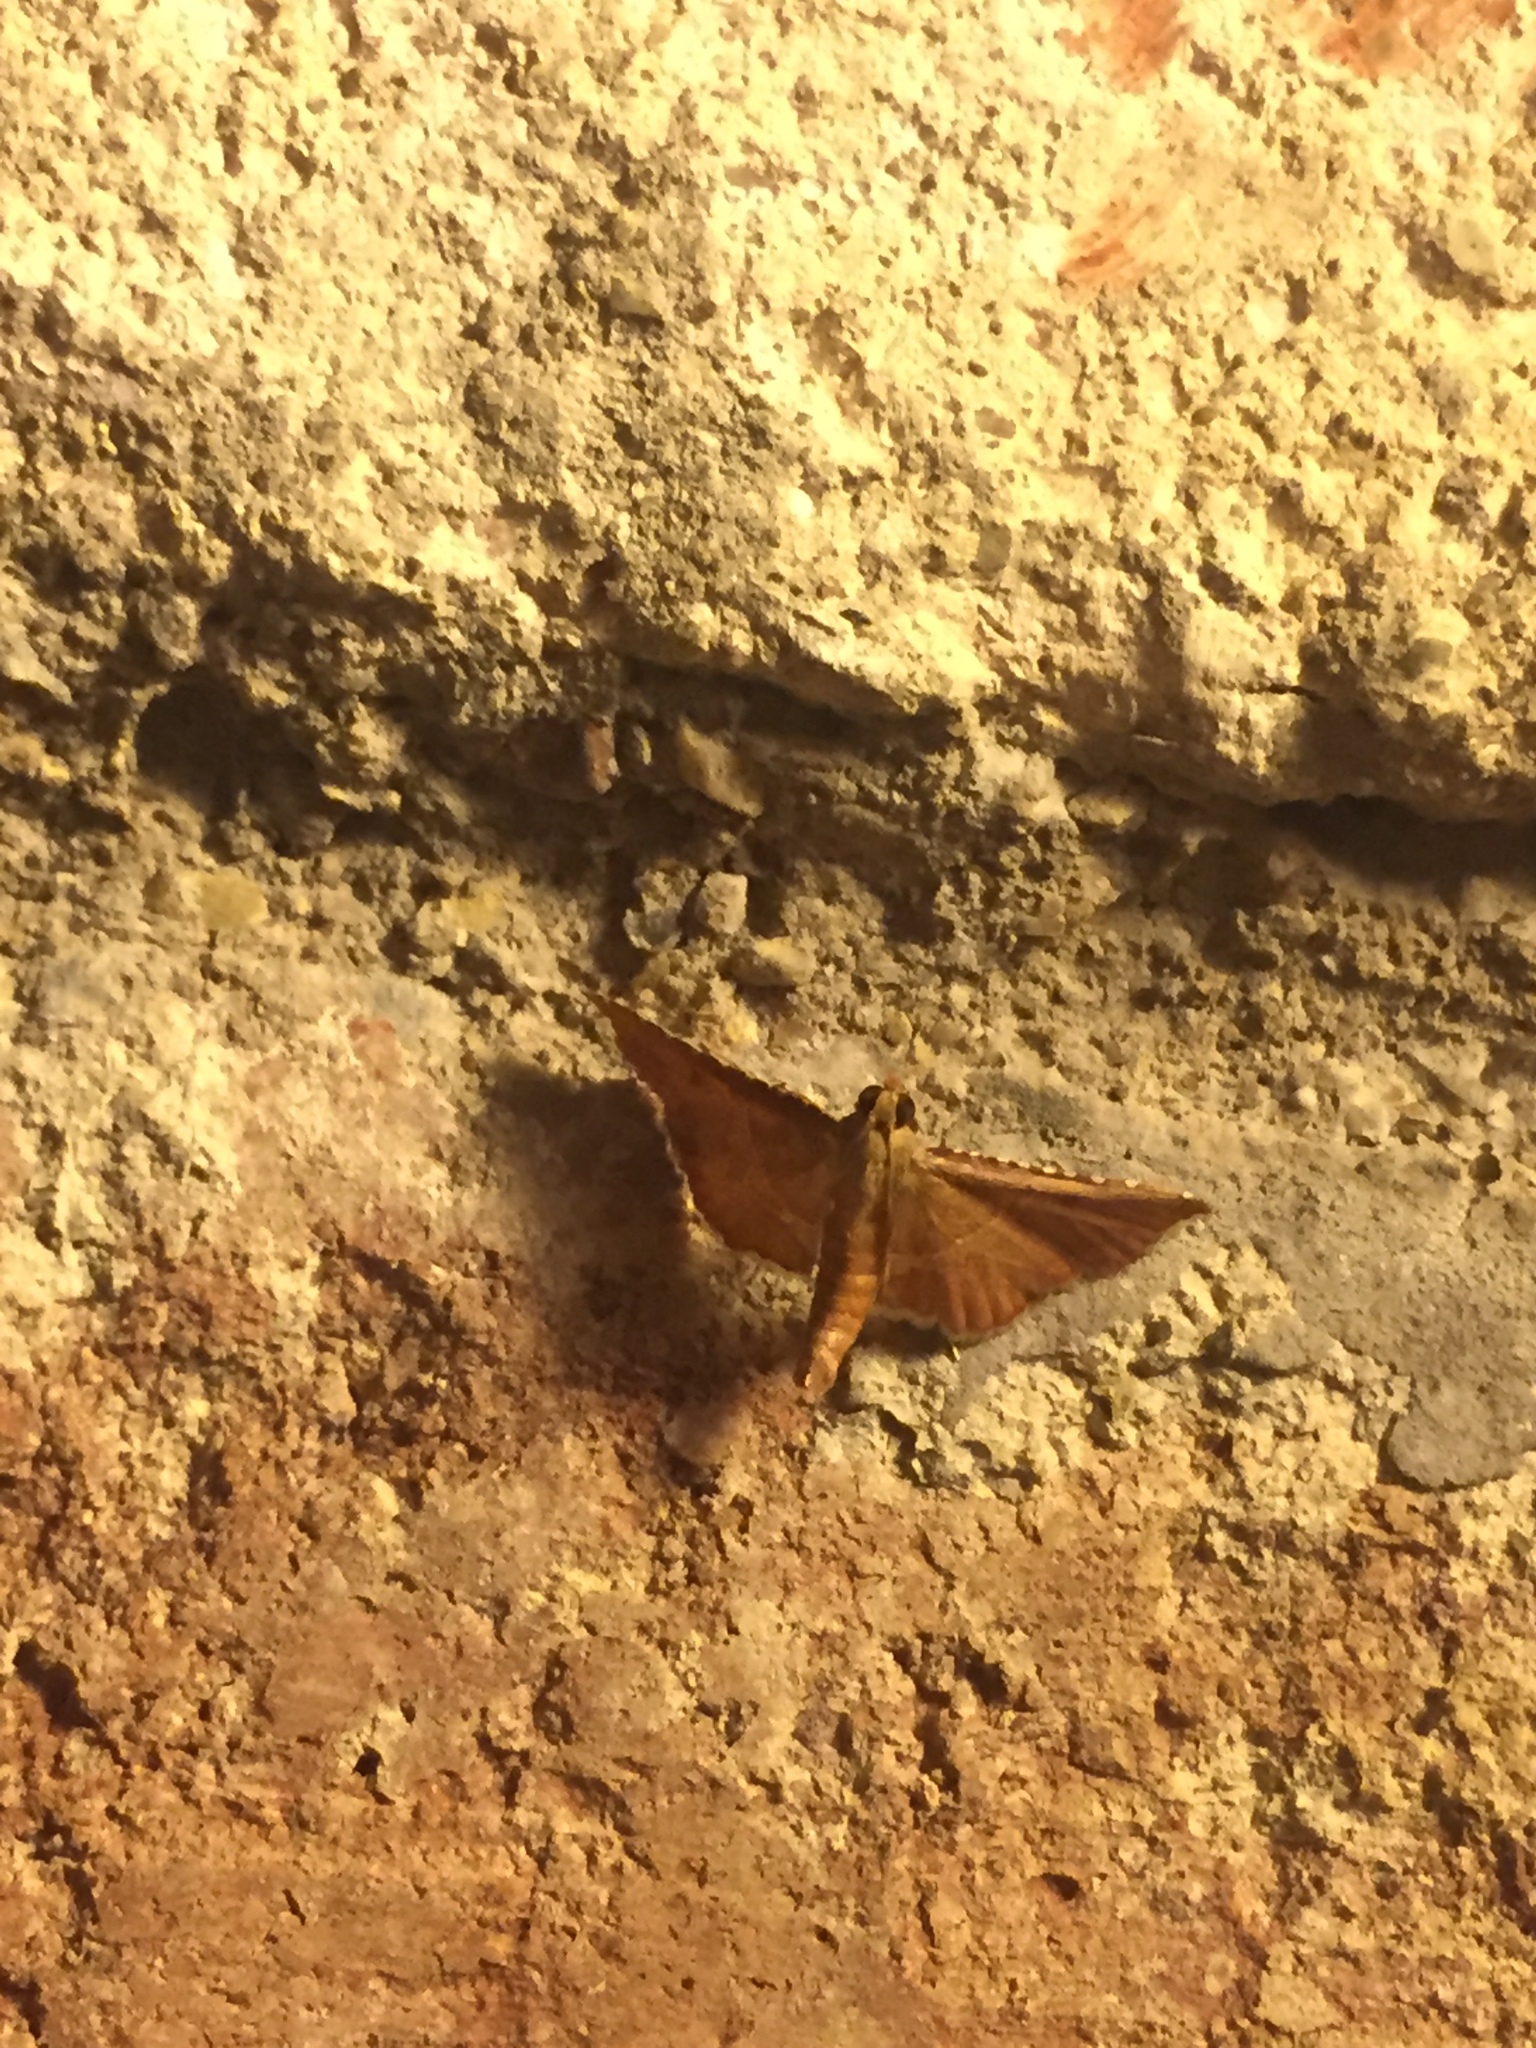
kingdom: Animalia
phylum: Arthropoda
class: Insecta
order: Lepidoptera
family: Pyralidae
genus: Endotricha
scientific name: Endotricha flammealis
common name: Rosy tabby
